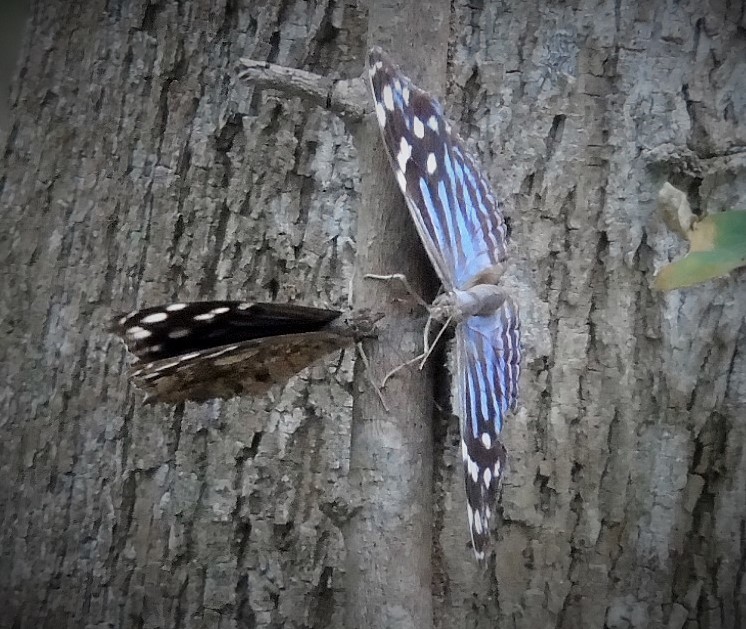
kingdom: Animalia
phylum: Arthropoda
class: Insecta
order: Lepidoptera
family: Nymphalidae
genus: Myscelia
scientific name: Myscelia ethusa
